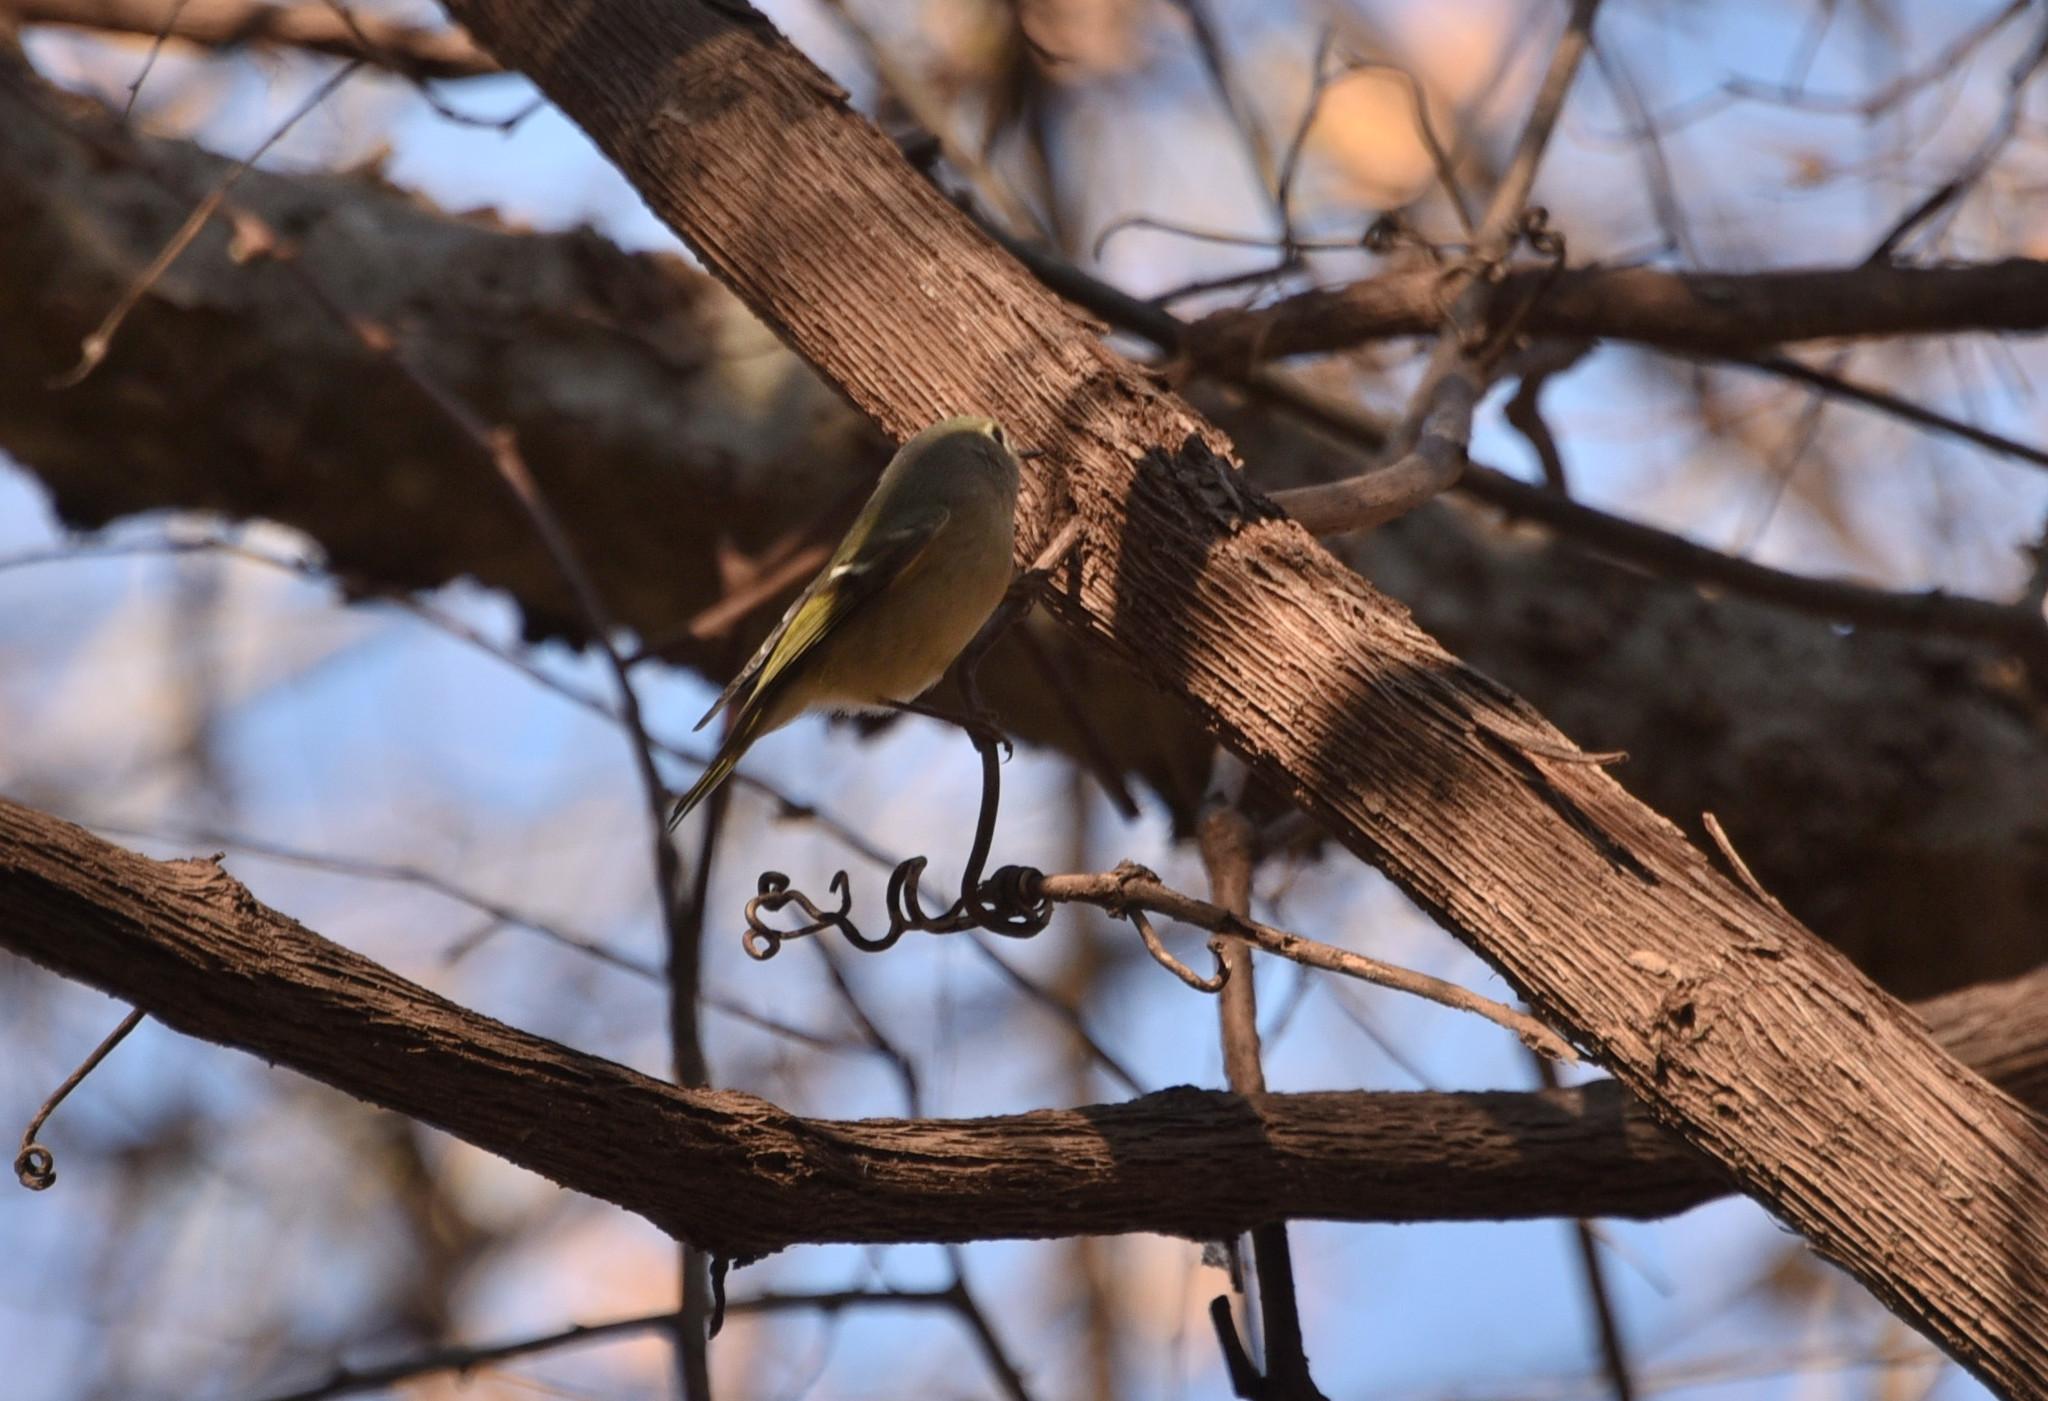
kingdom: Animalia
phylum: Chordata
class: Aves
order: Passeriformes
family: Regulidae
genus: Regulus
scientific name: Regulus calendula
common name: Ruby-crowned kinglet
